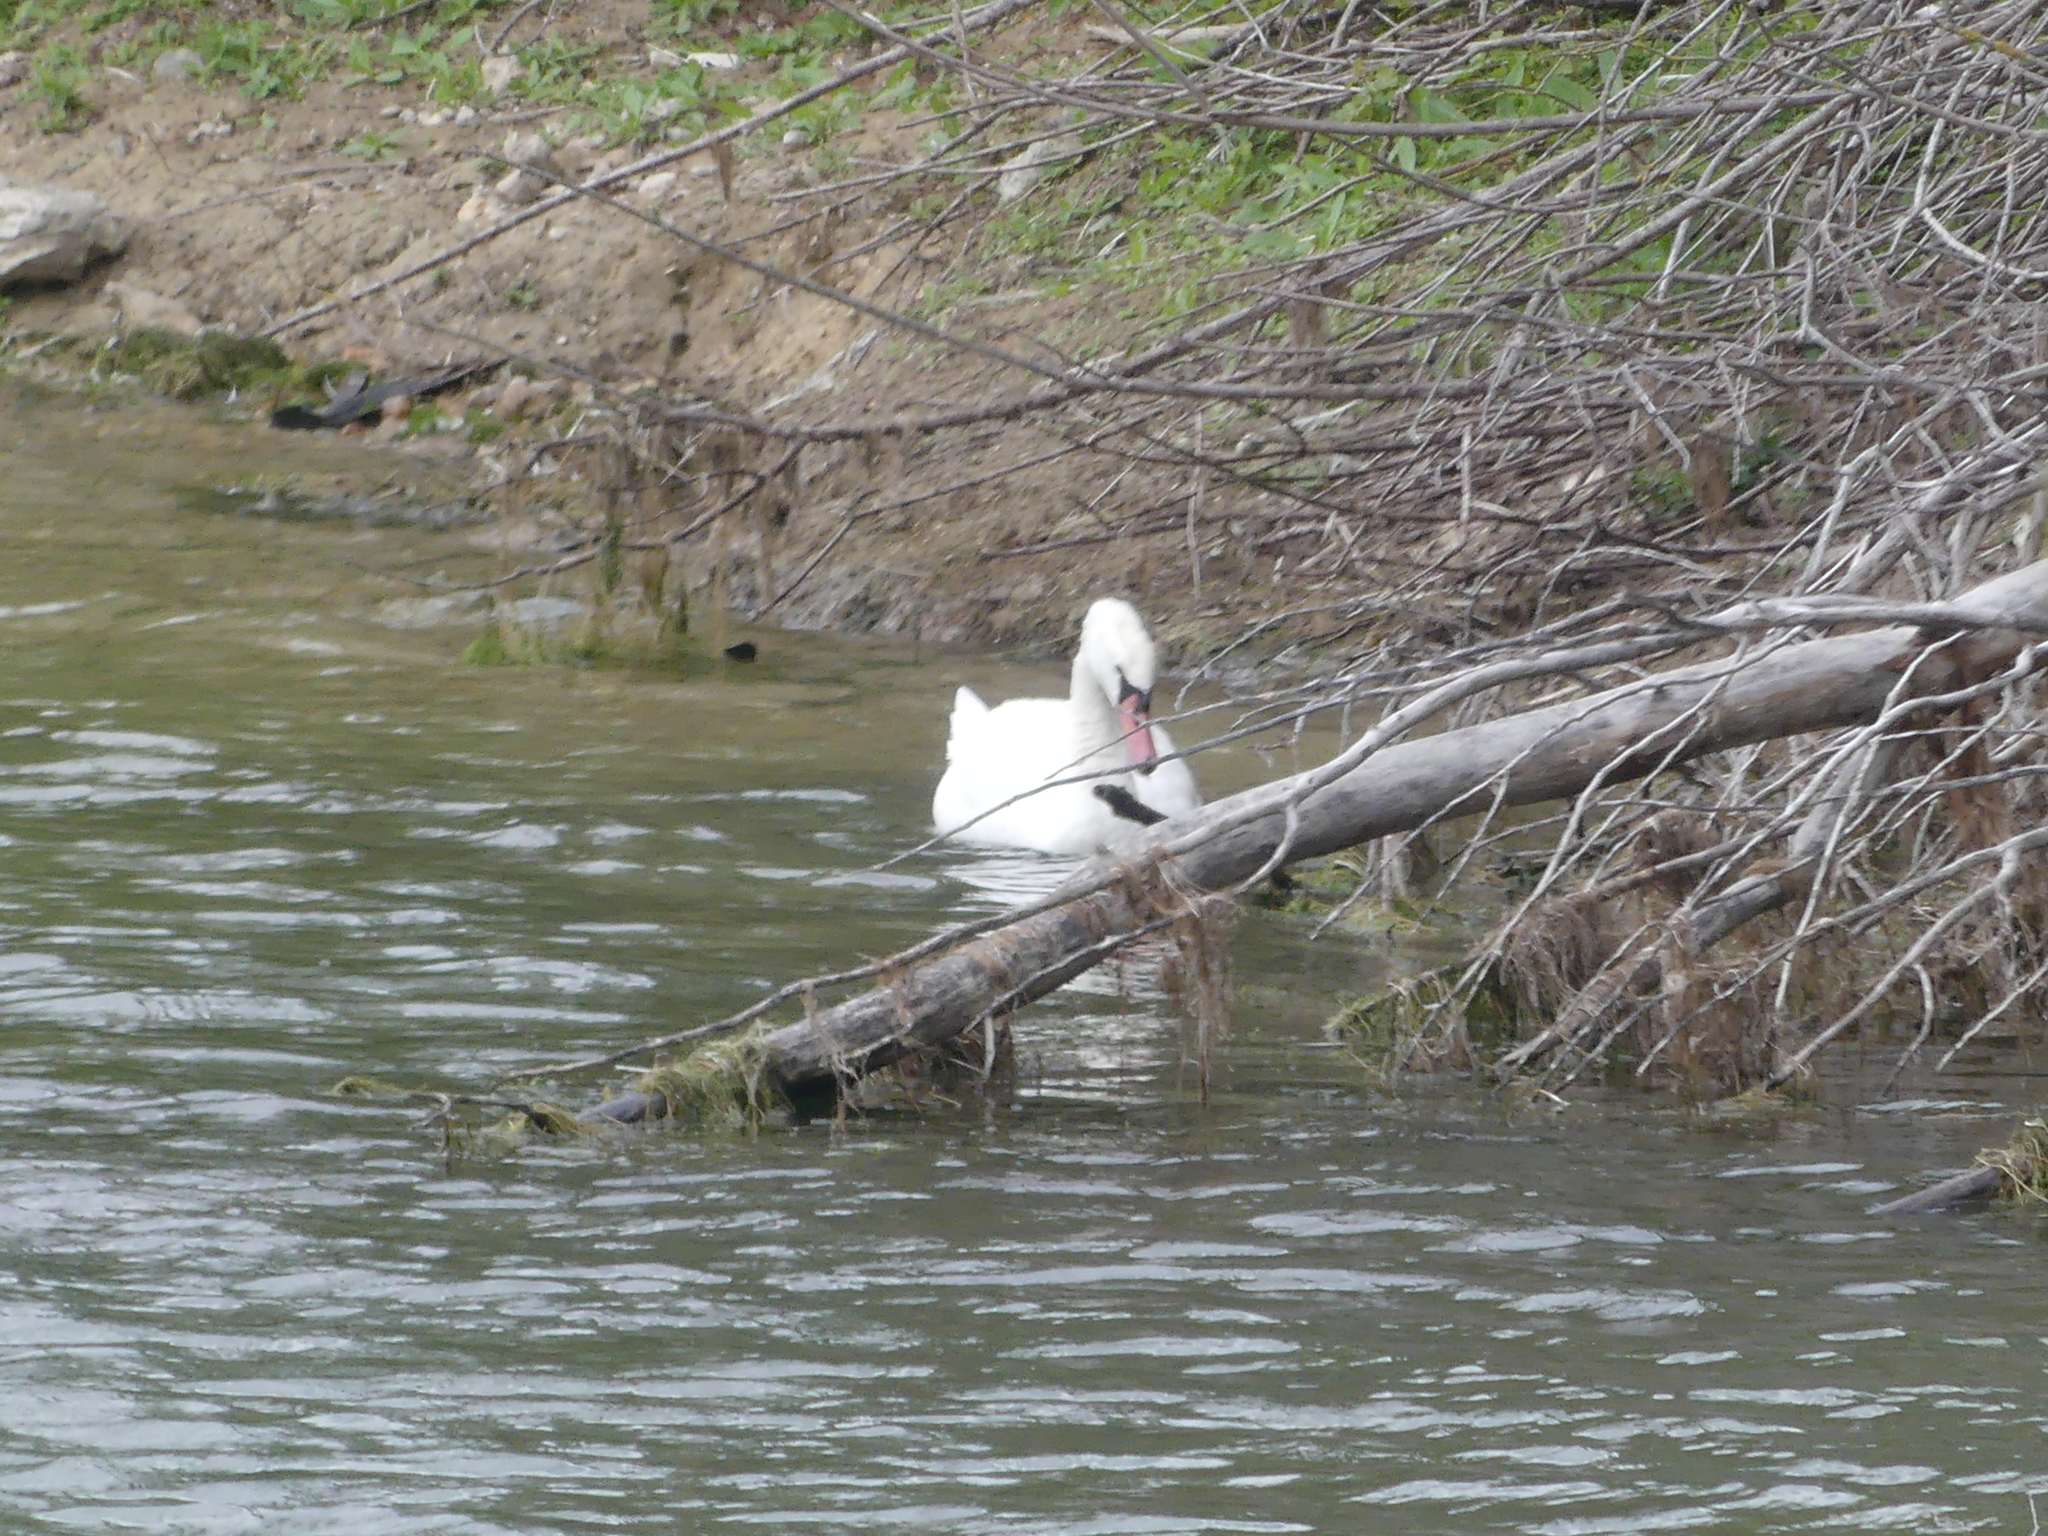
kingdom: Animalia
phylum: Chordata
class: Aves
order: Anseriformes
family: Anatidae
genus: Cygnus
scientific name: Cygnus olor
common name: Mute swan
